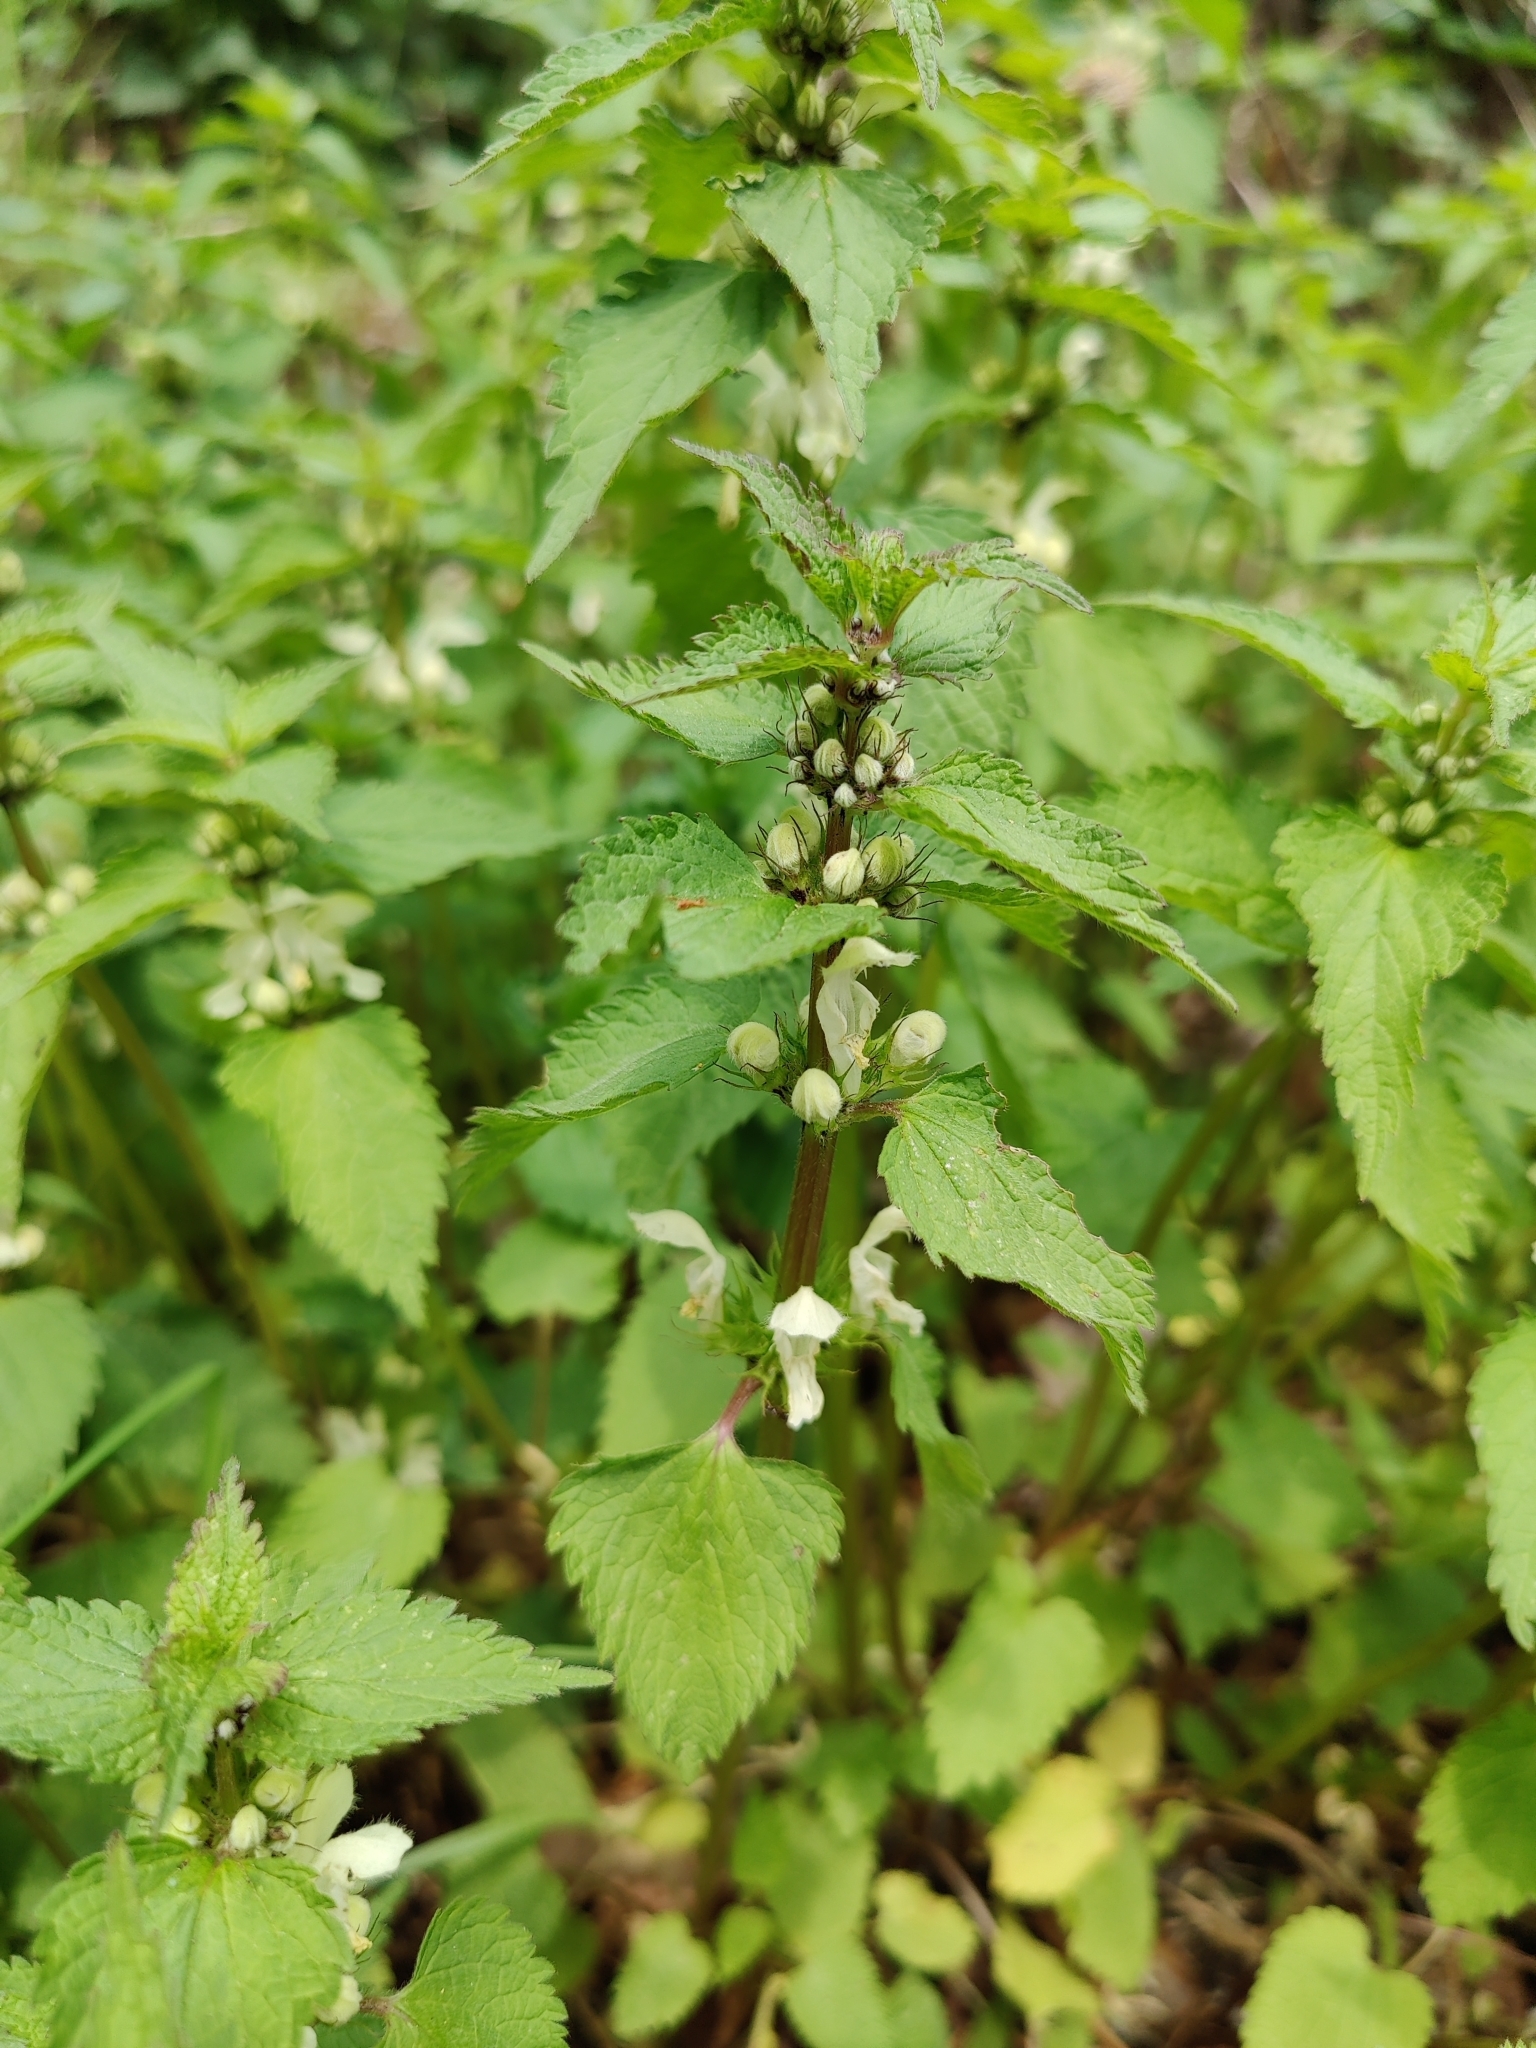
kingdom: Plantae
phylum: Tracheophyta
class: Magnoliopsida
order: Lamiales
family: Lamiaceae
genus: Lamium
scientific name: Lamium album
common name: White dead-nettle
